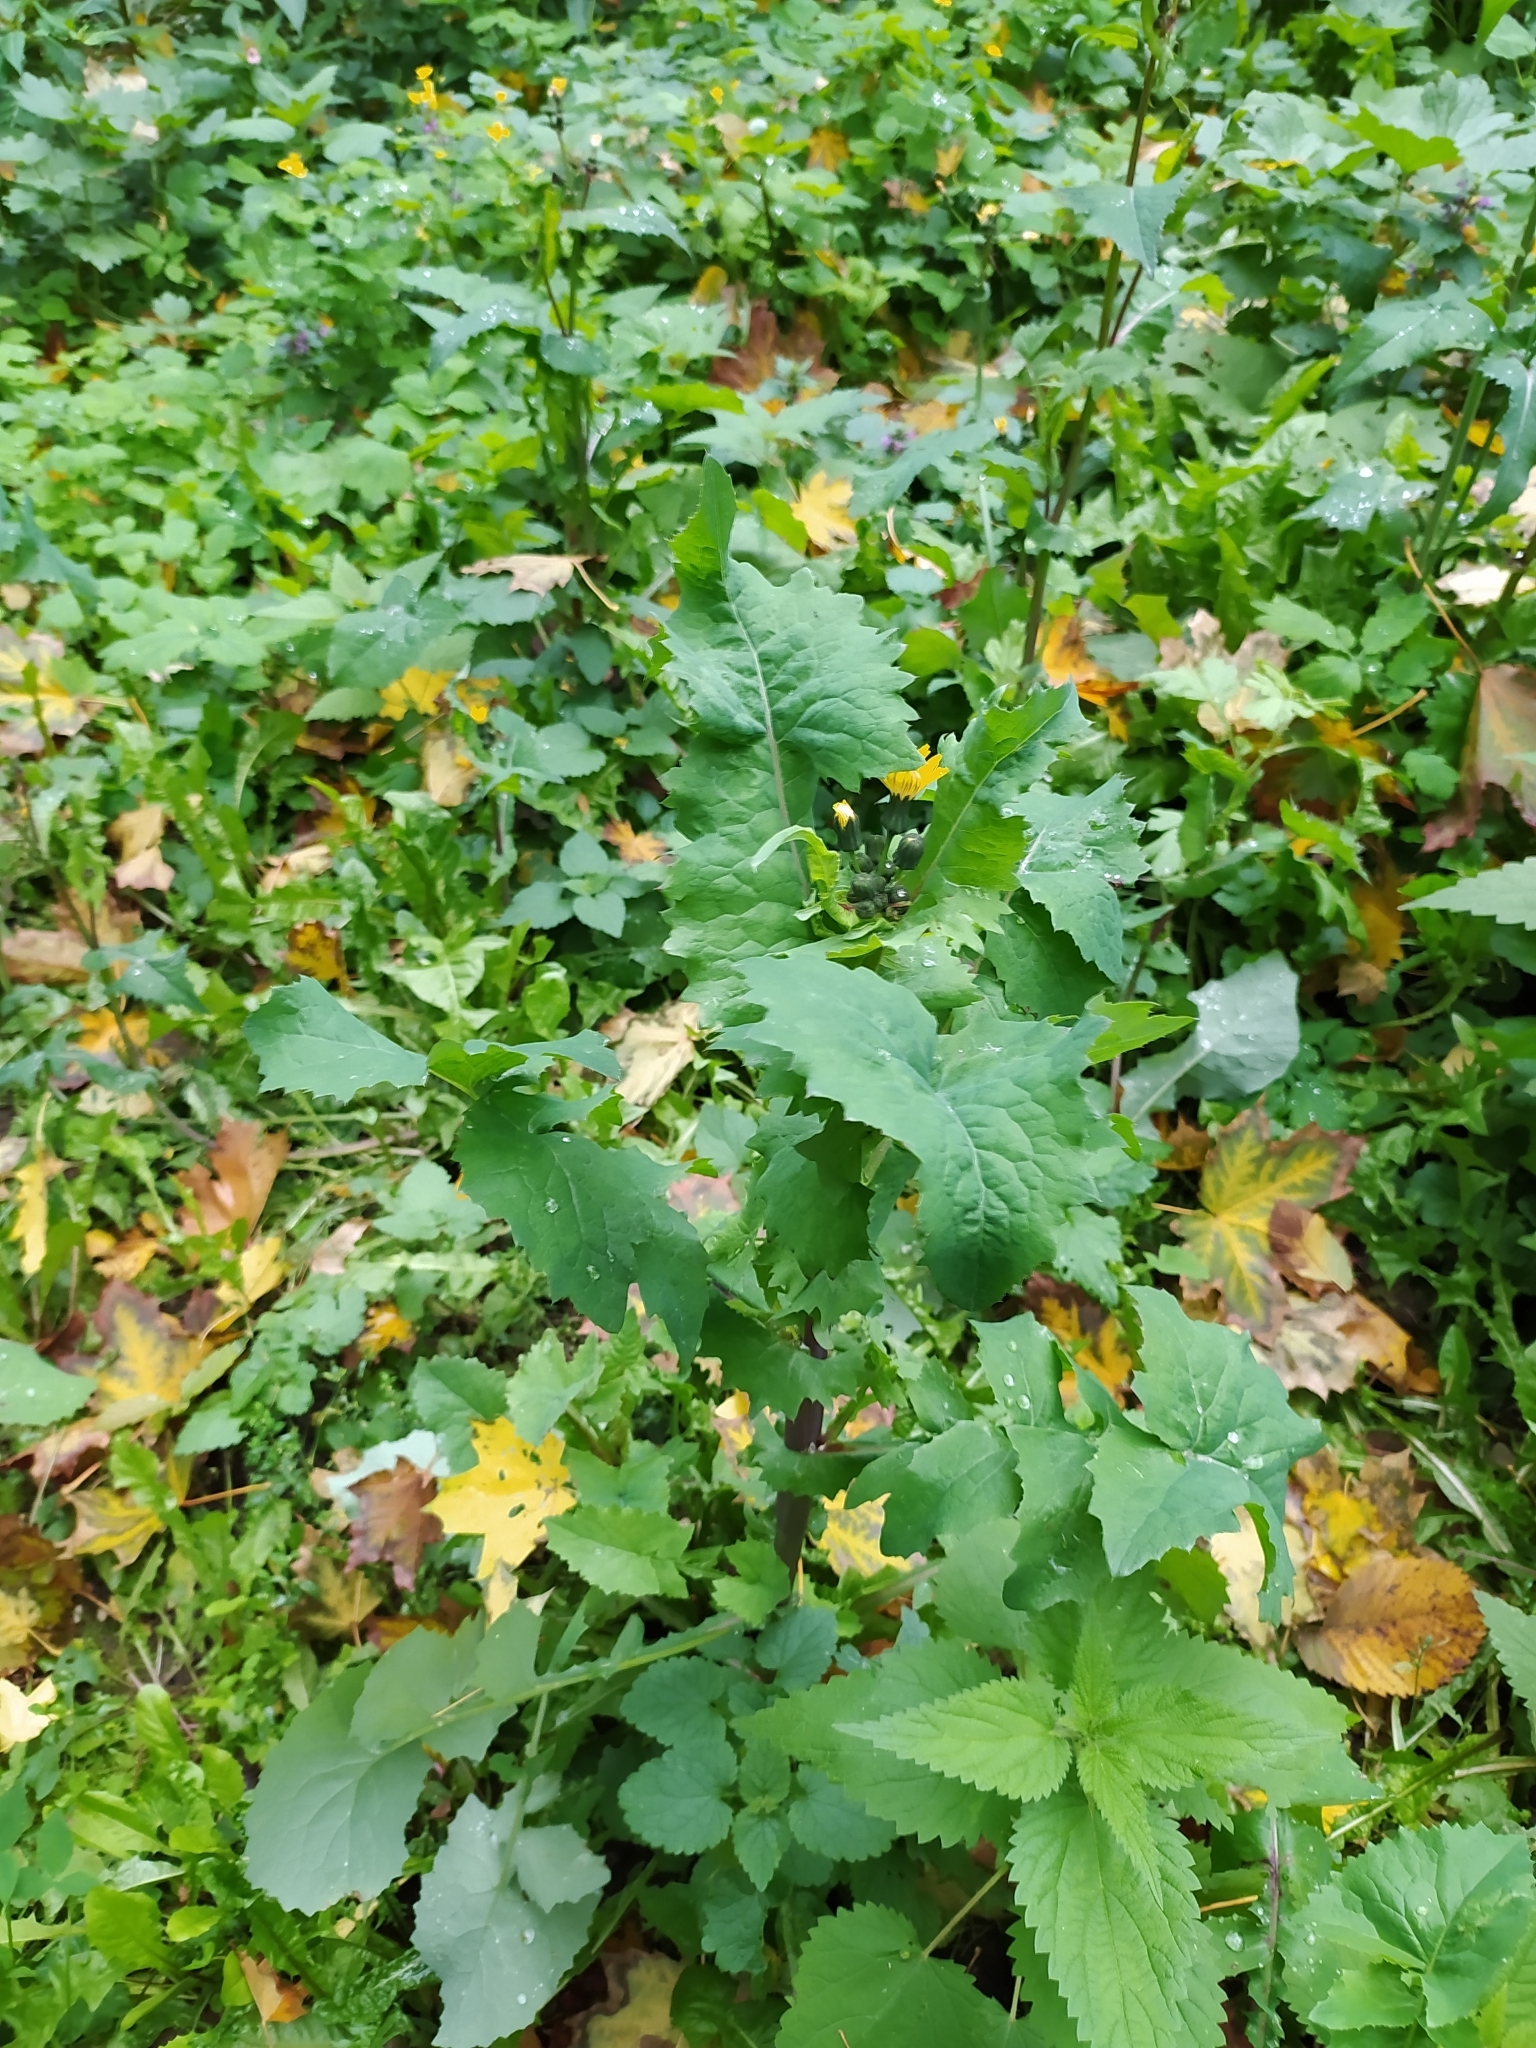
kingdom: Plantae
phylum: Tracheophyta
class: Magnoliopsida
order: Asterales
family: Asteraceae
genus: Sonchus
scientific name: Sonchus oleraceus
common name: Common sowthistle
